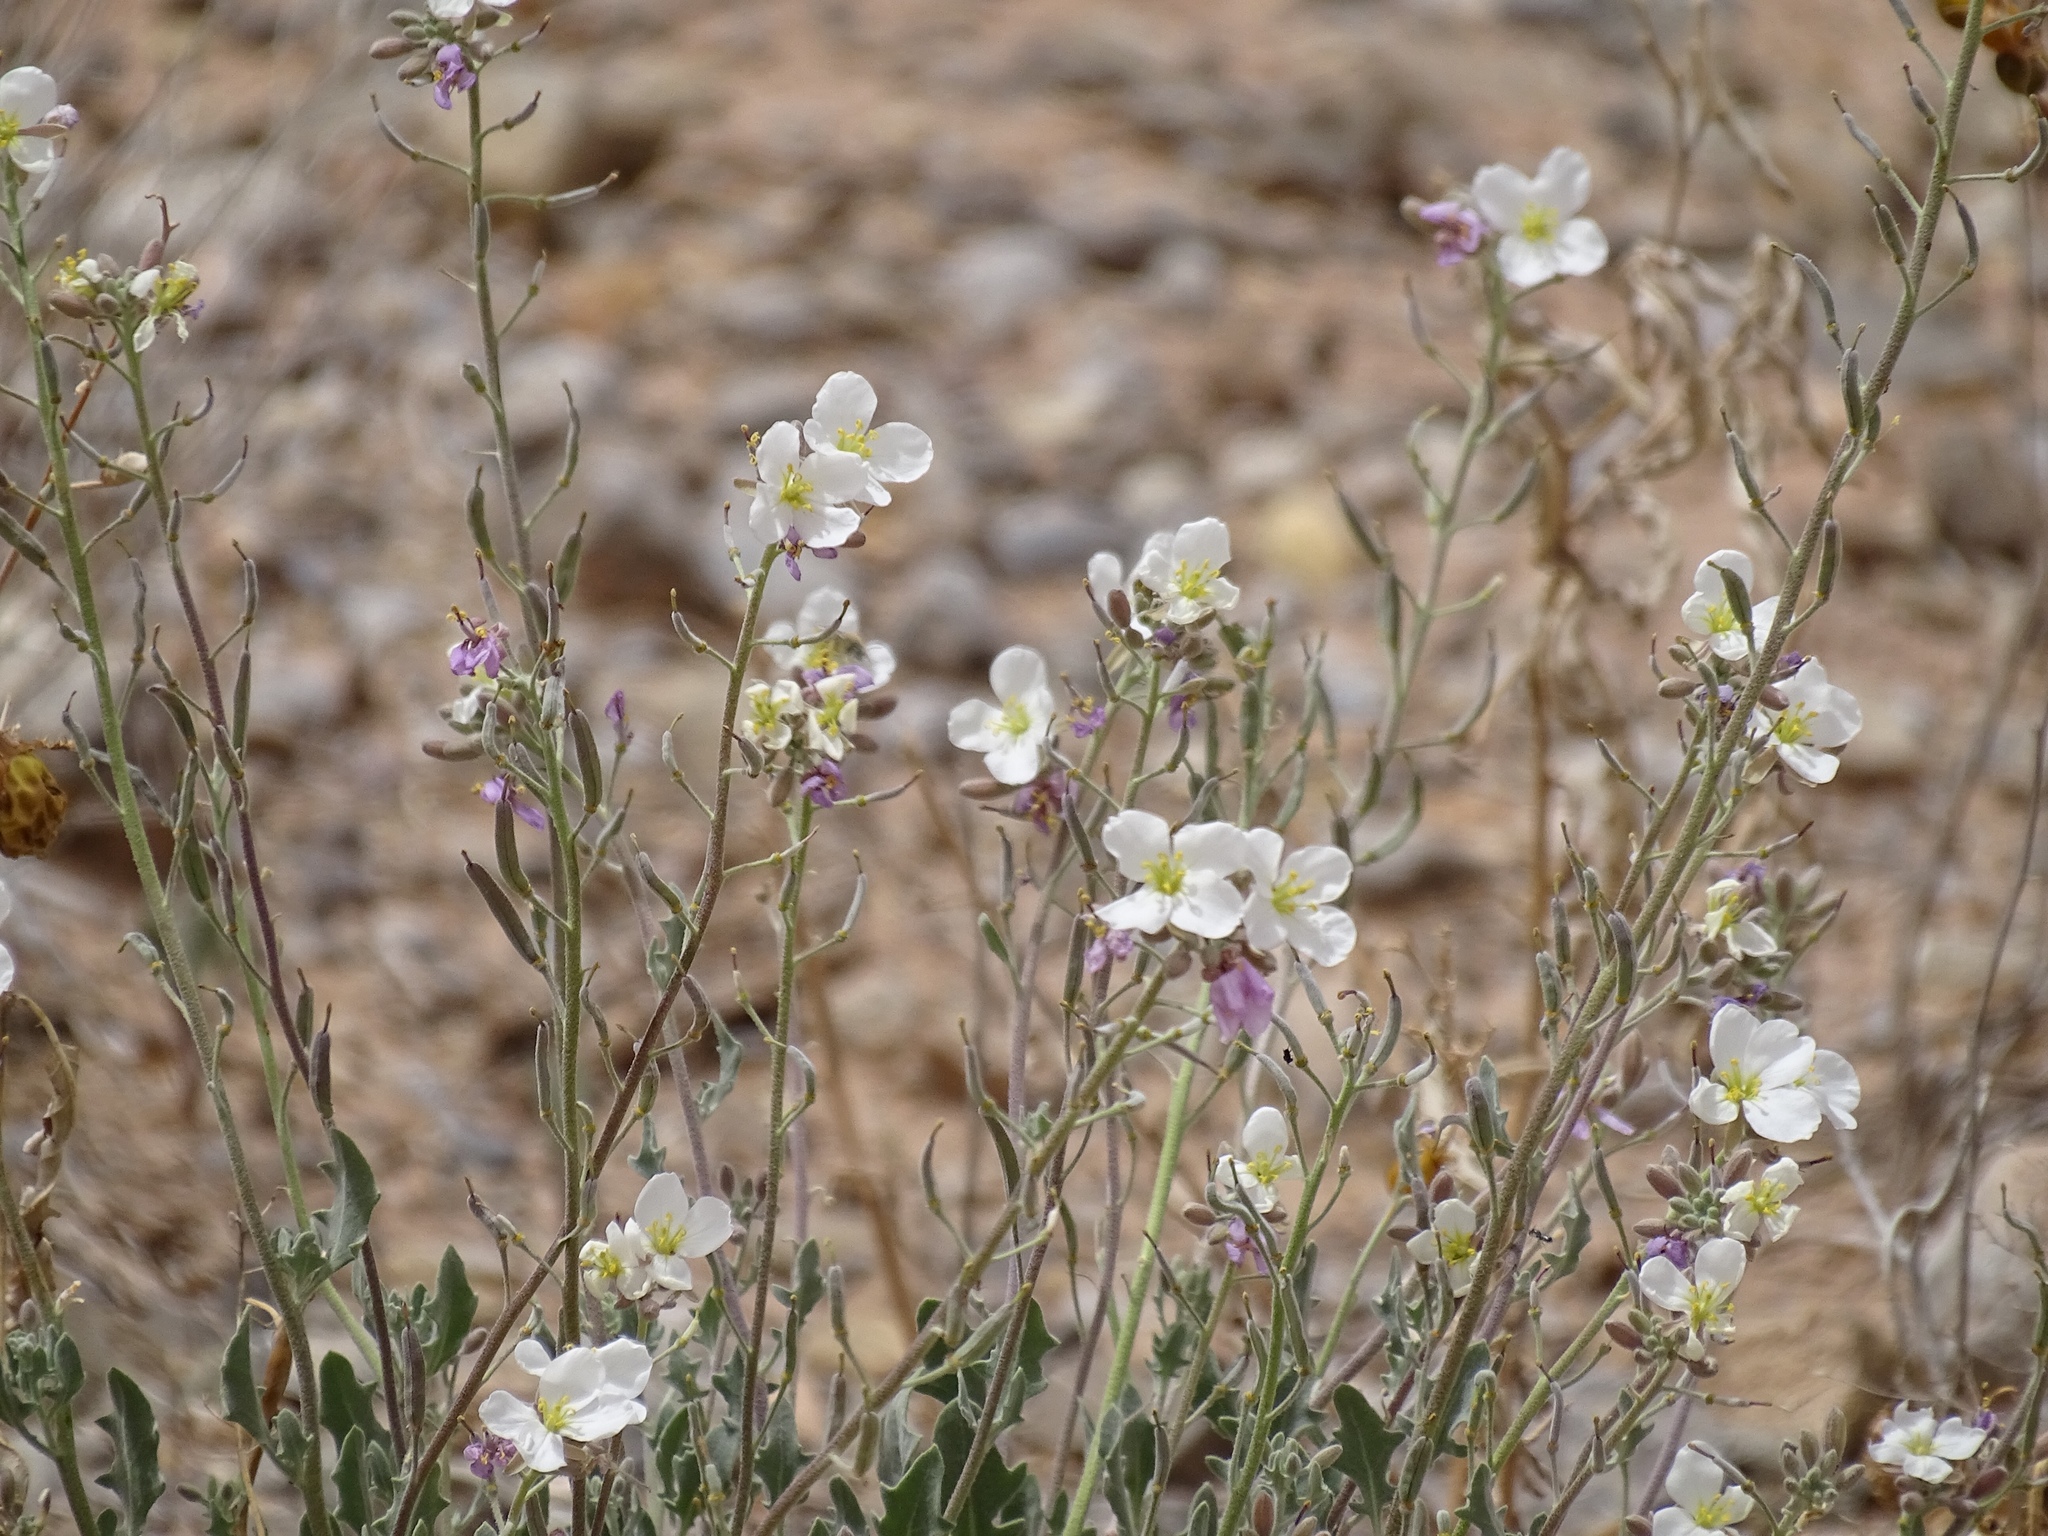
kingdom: Plantae
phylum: Tracheophyta
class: Magnoliopsida
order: Brassicales
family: Brassicaceae
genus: Nerisyrenia
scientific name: Nerisyrenia camporum
